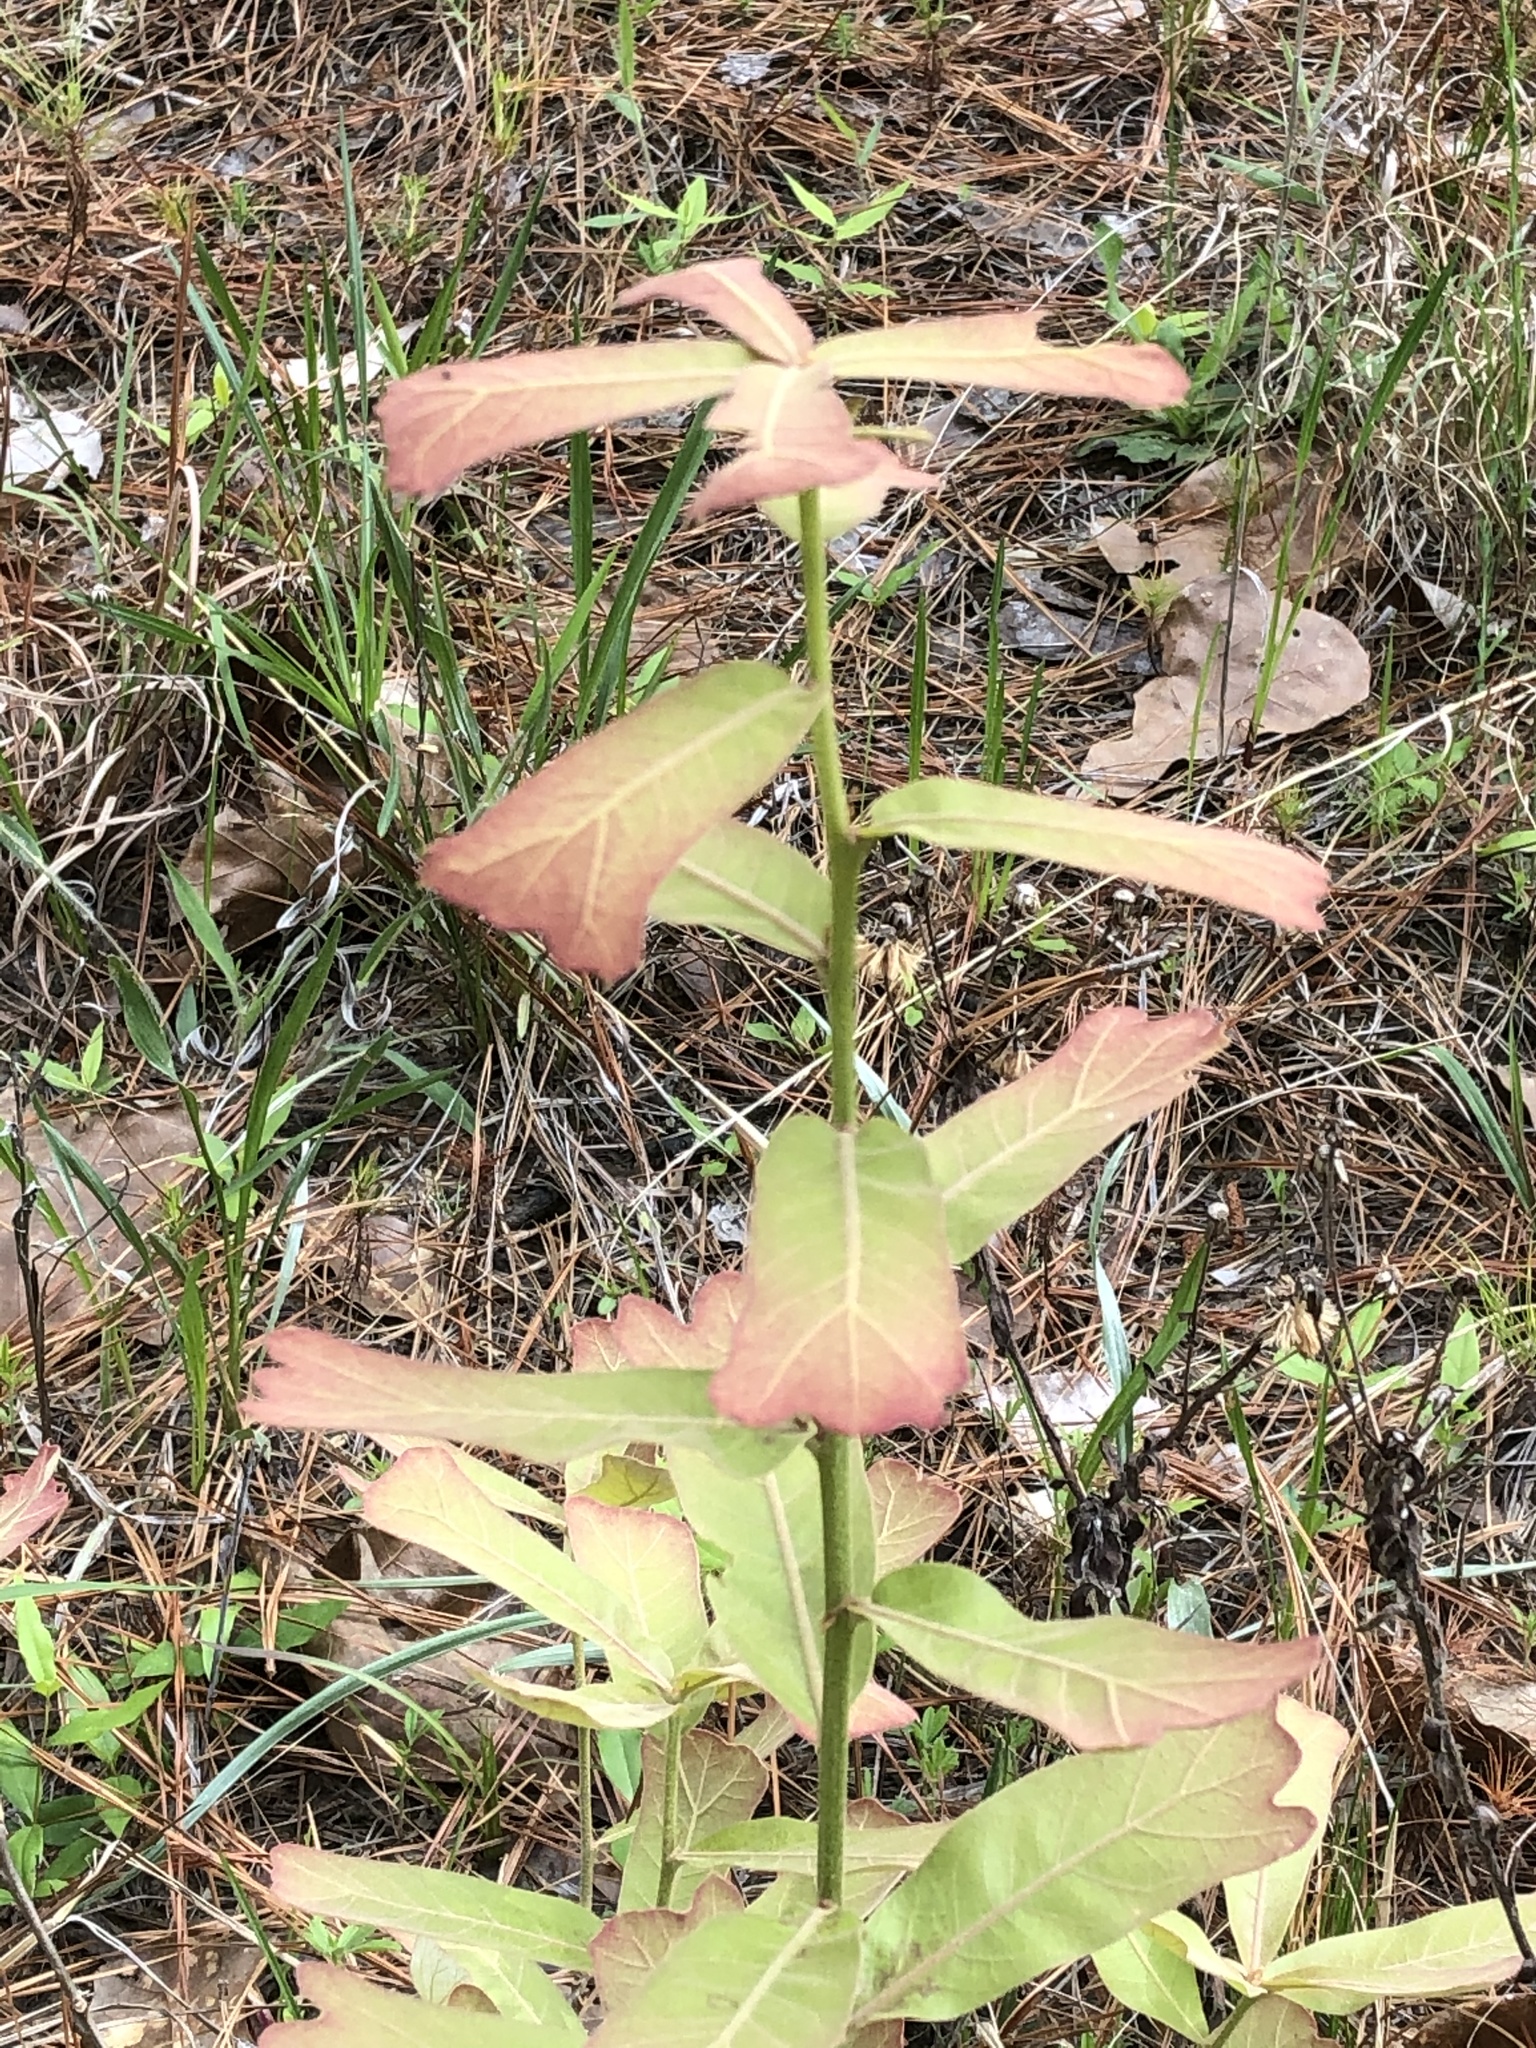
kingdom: Plantae
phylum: Tracheophyta
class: Magnoliopsida
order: Fagales
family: Fagaceae
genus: Quercus
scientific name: Quercus marilandica
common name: Blackjack oak
